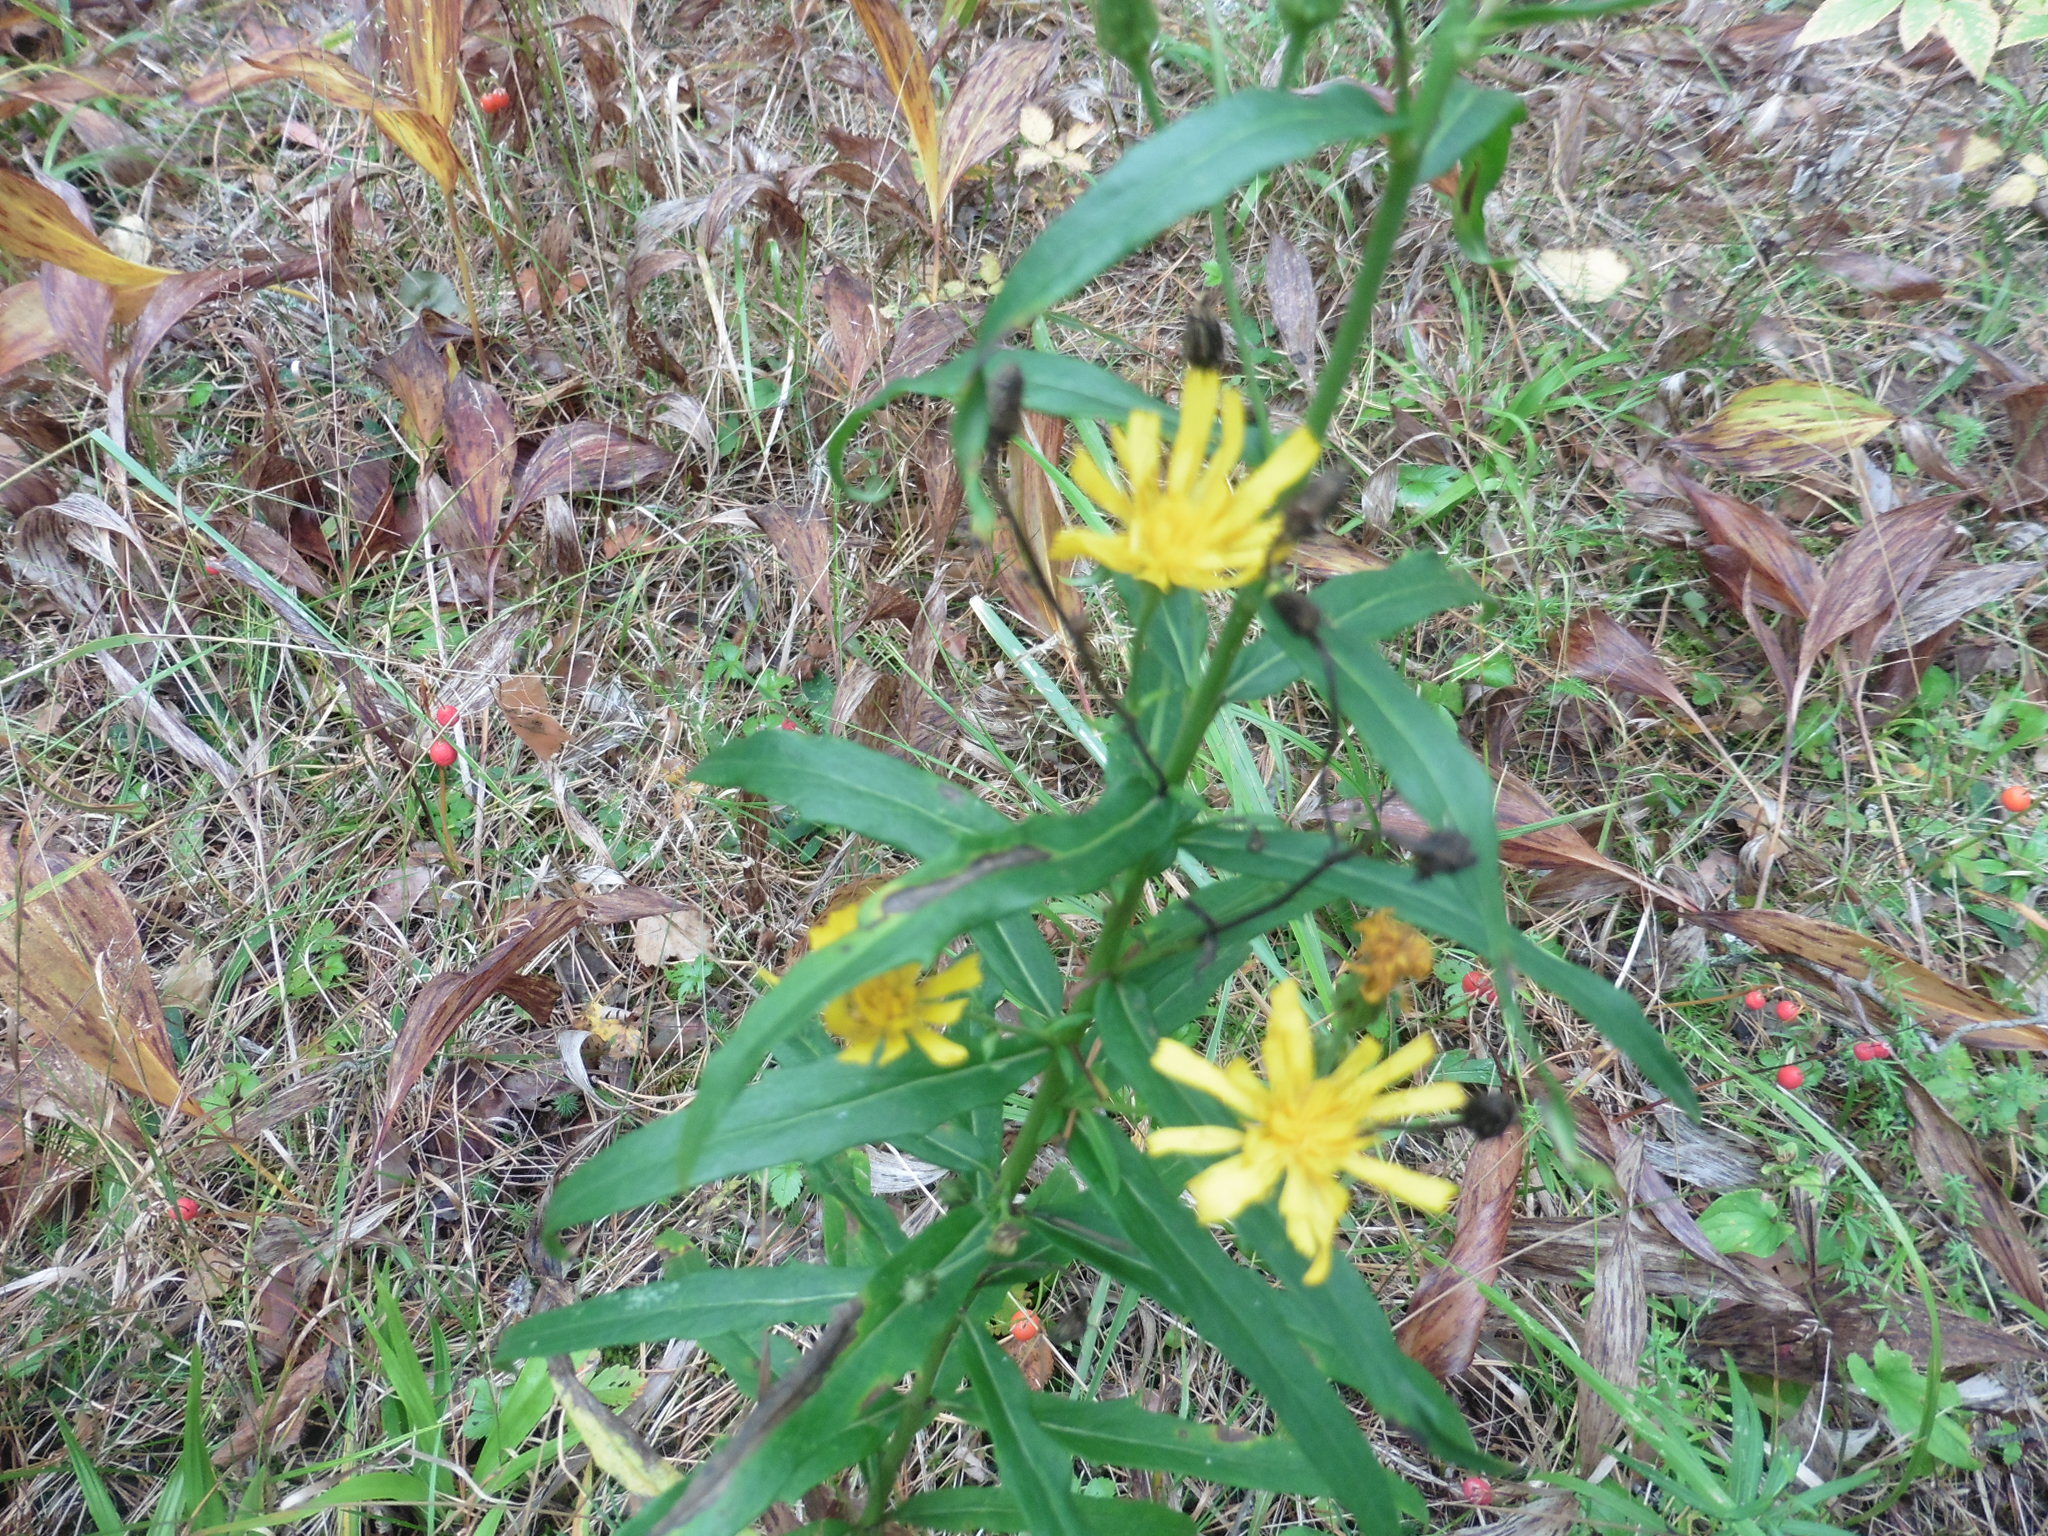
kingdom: Plantae
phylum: Tracheophyta
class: Magnoliopsida
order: Asterales
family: Asteraceae
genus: Hieracium
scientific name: Hieracium umbellatum
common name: Northern hawkweed
